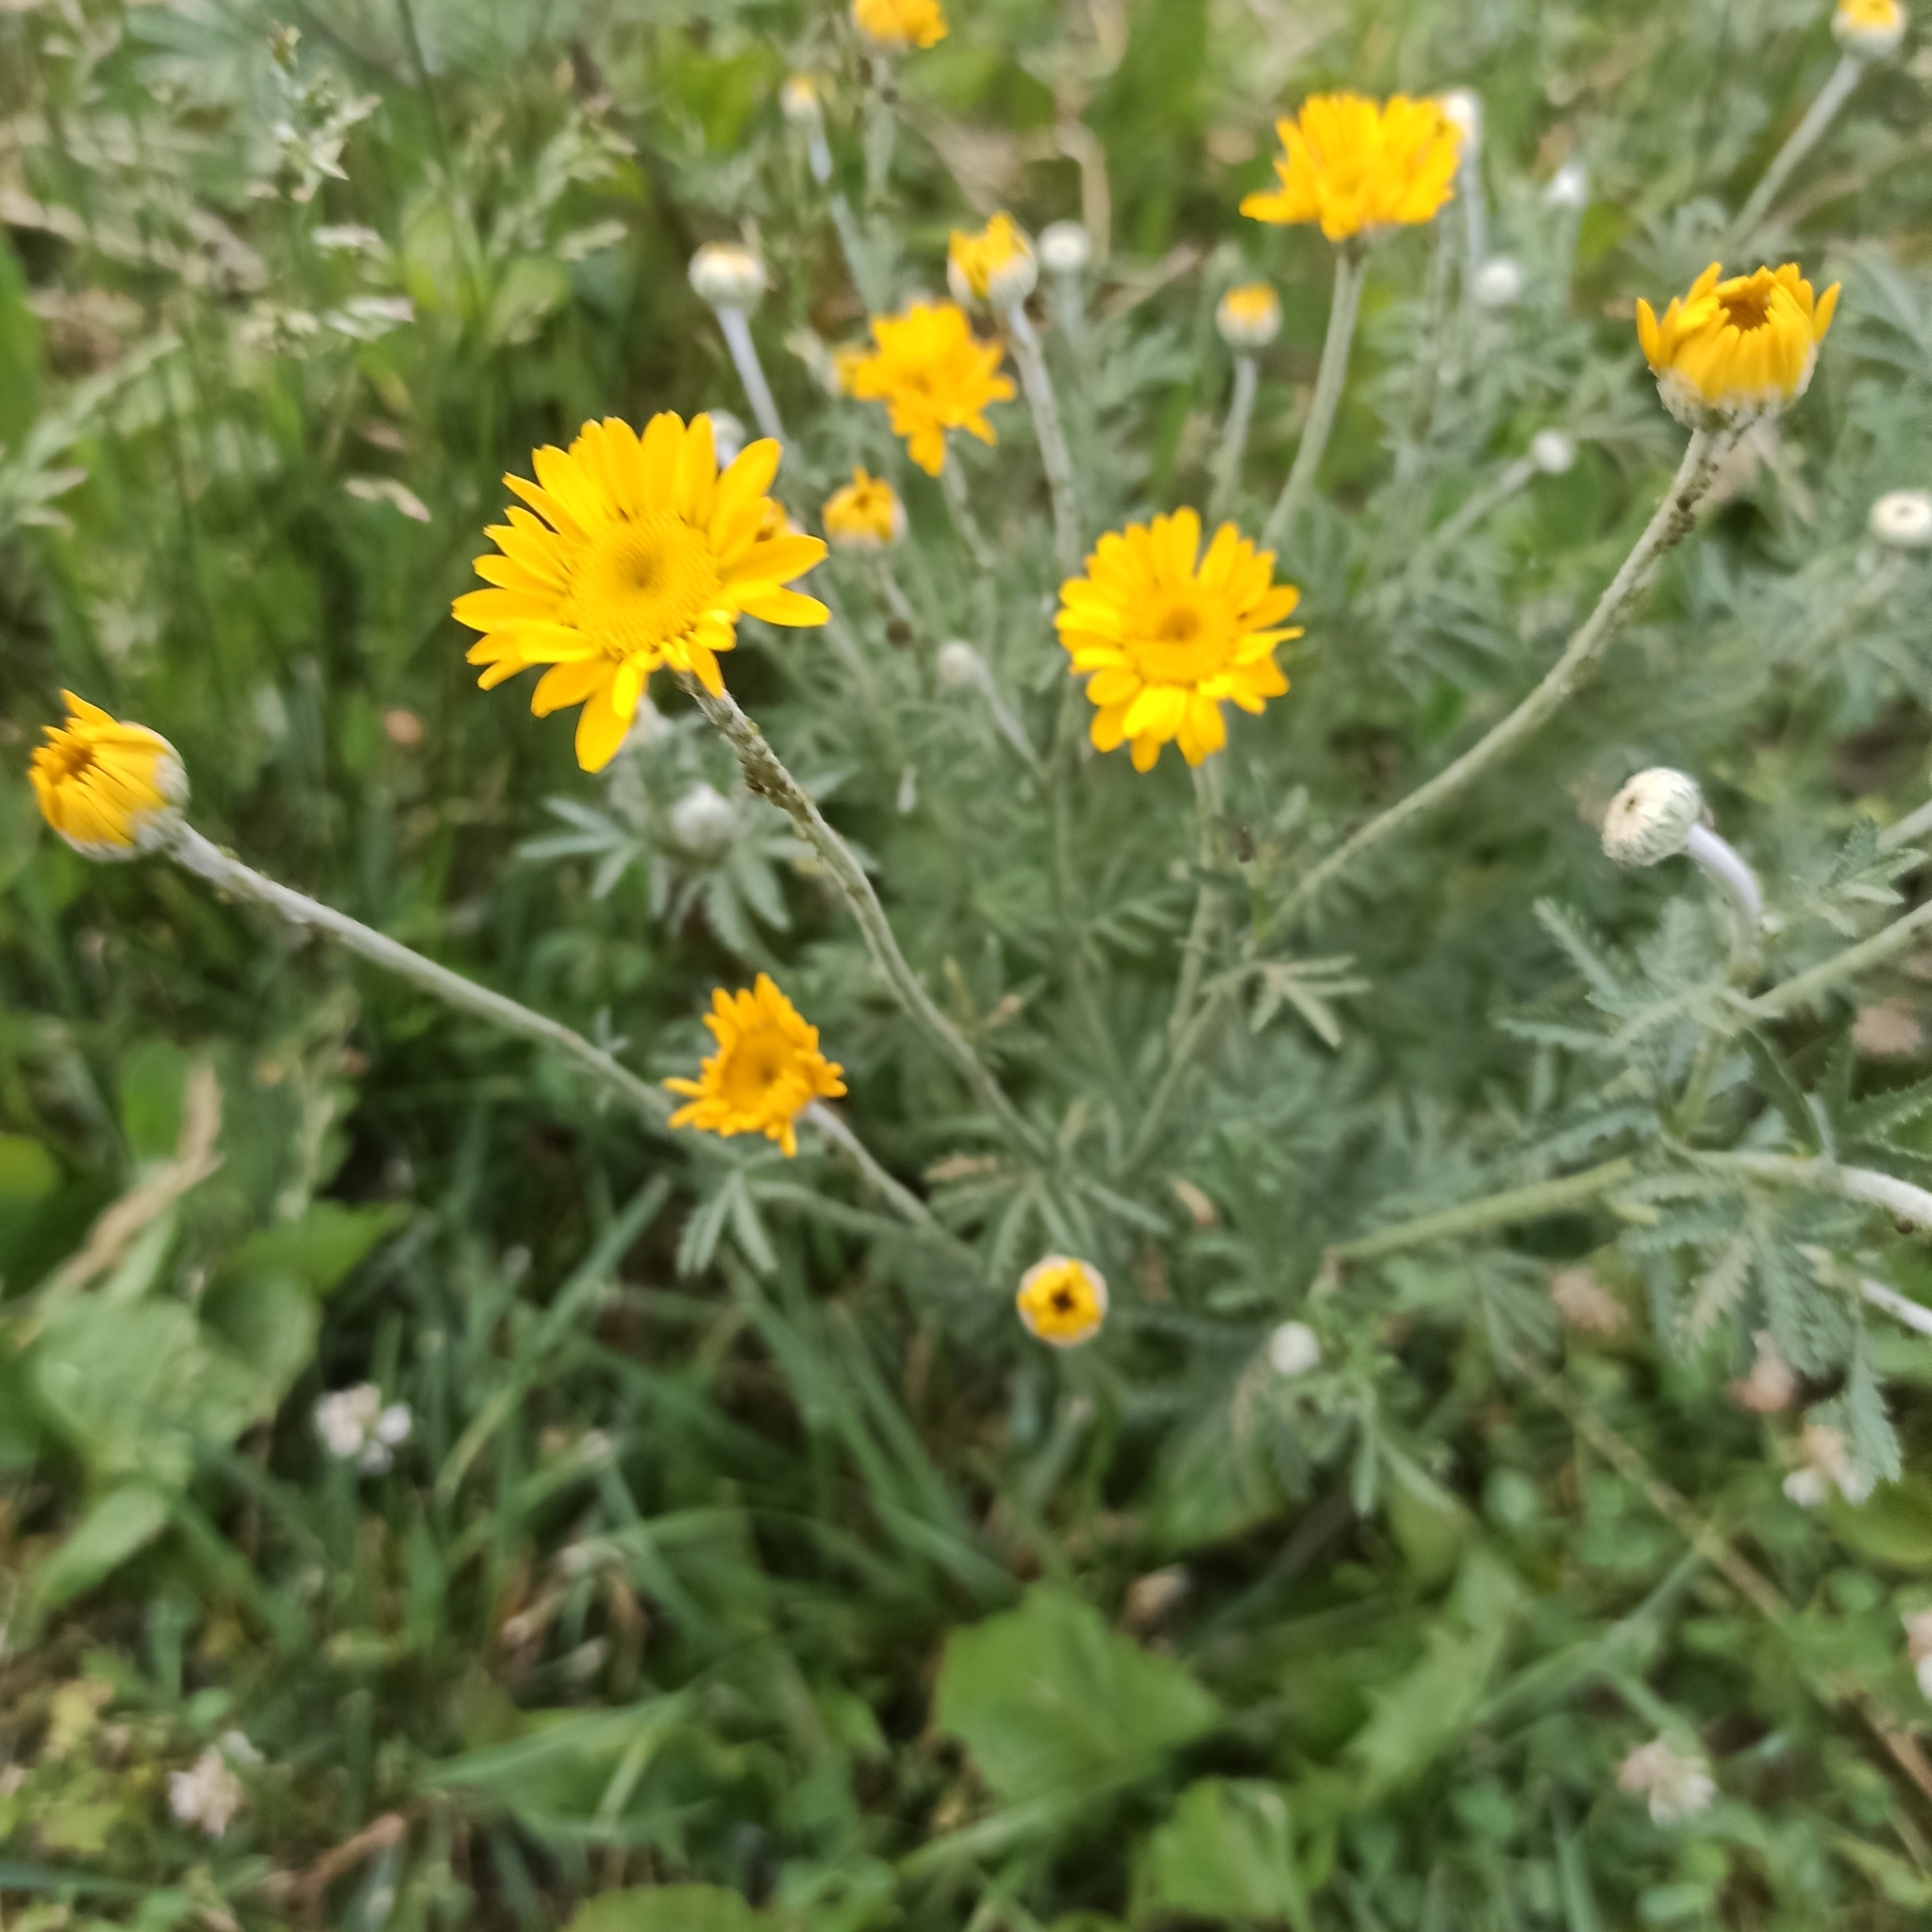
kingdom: Plantae
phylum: Tracheophyta
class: Magnoliopsida
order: Asterales
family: Asteraceae
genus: Cota
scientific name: Cota tinctoria
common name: Golden chamomile
